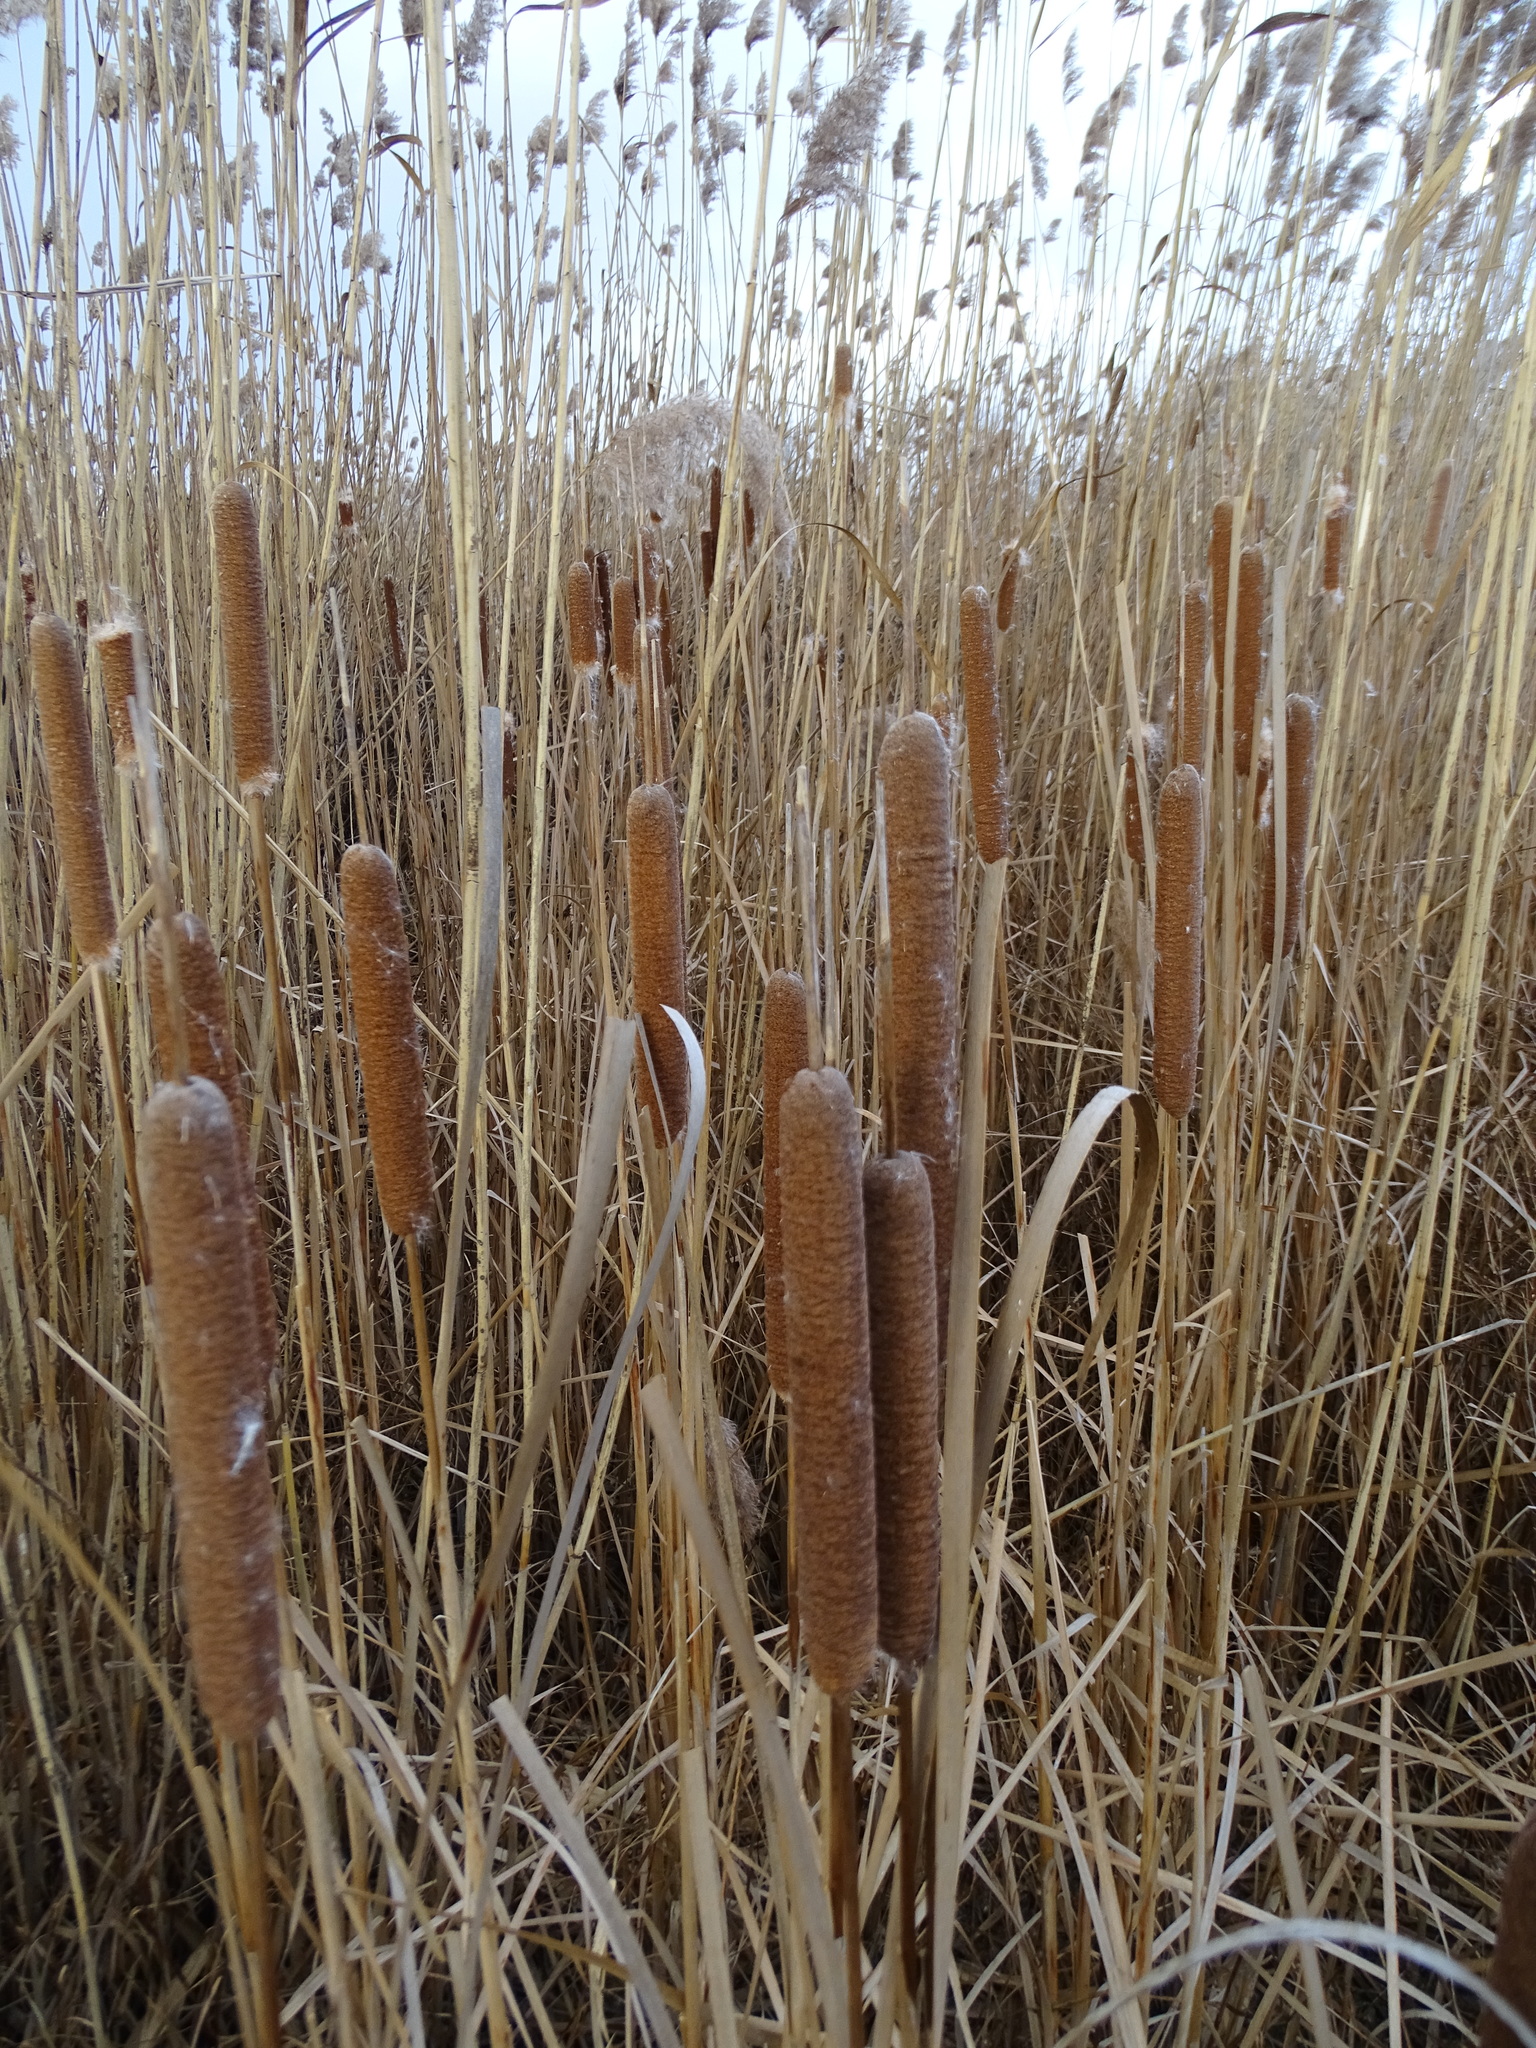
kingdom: Plantae
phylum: Tracheophyta
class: Liliopsida
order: Poales
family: Typhaceae
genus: Typha
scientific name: Typha angustifolia
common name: Lesser bulrush
